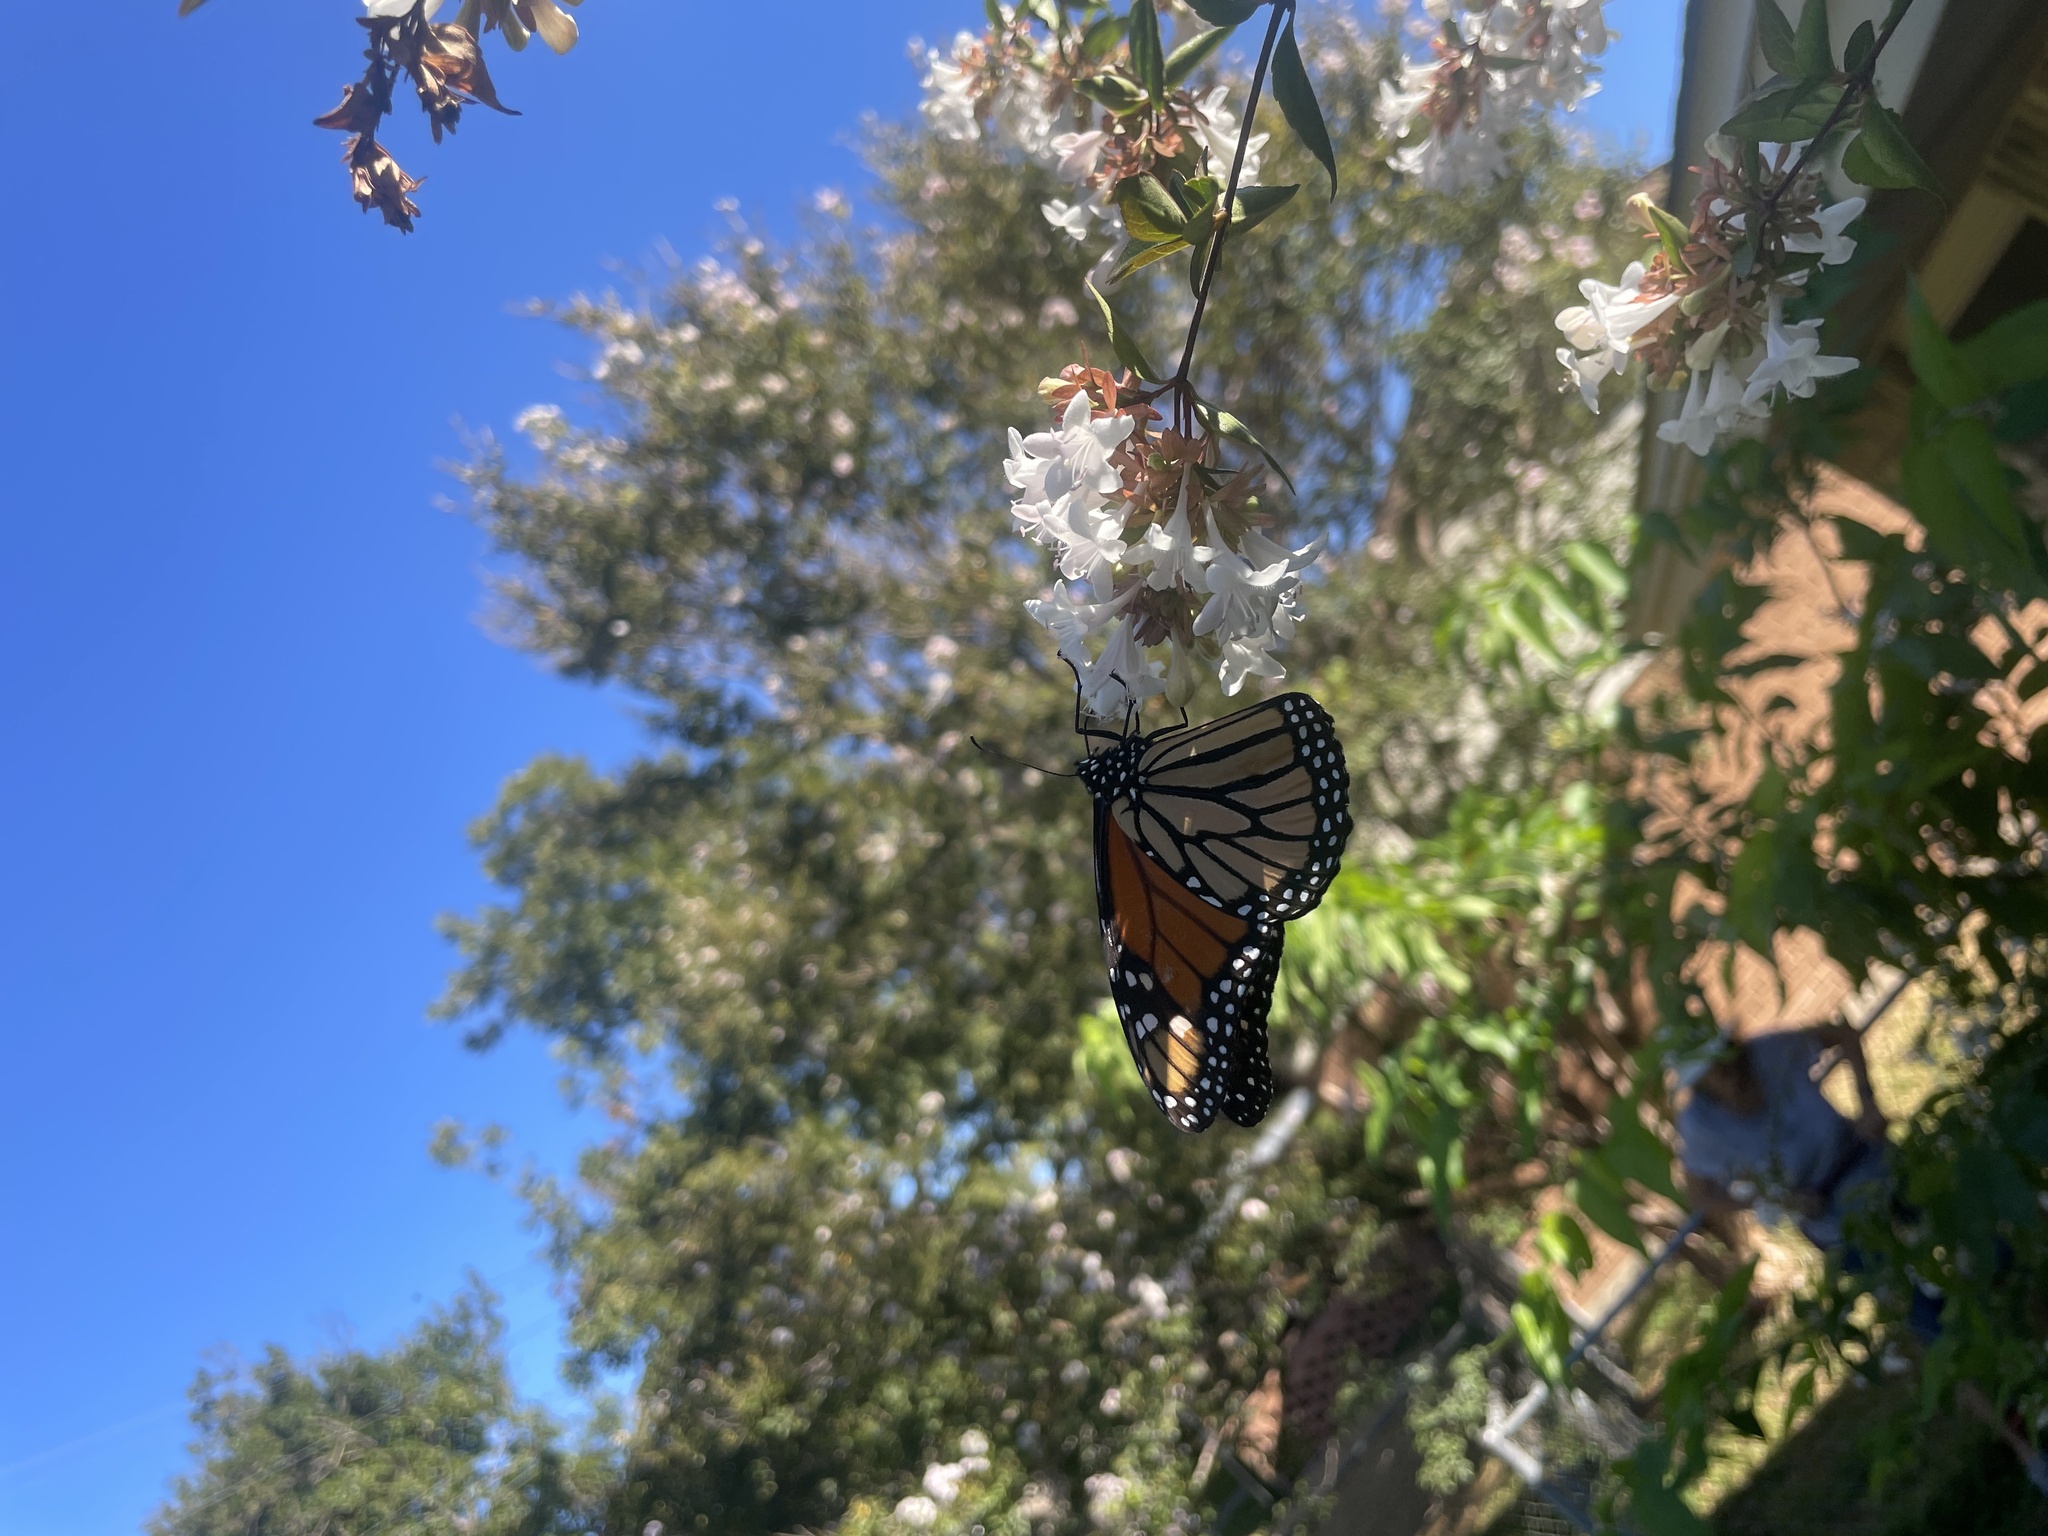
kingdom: Animalia
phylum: Arthropoda
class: Insecta
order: Lepidoptera
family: Nymphalidae
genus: Danaus
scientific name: Danaus plexippus
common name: Monarch
